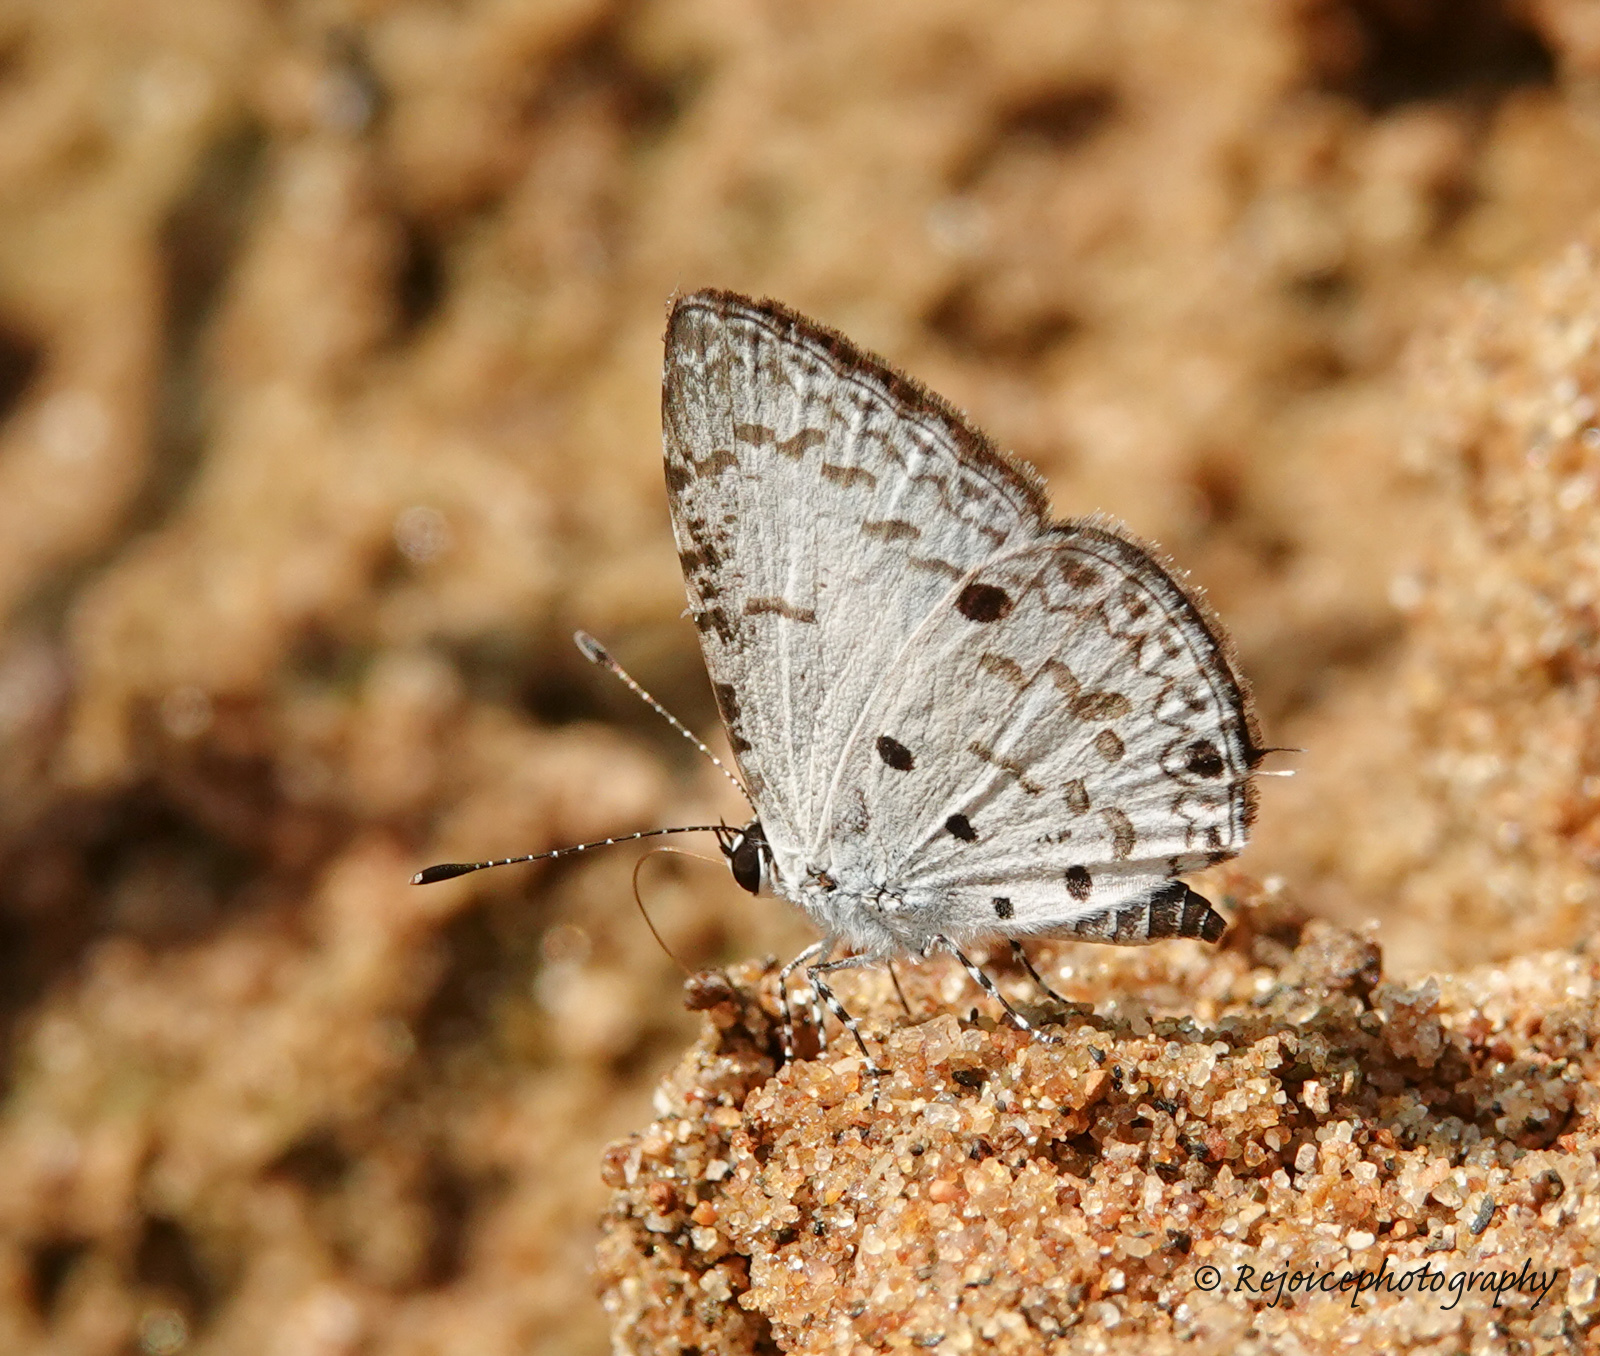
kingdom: Animalia
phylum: Arthropoda
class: Insecta
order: Lepidoptera
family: Lycaenidae
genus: Megisba
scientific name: Megisba malaya
